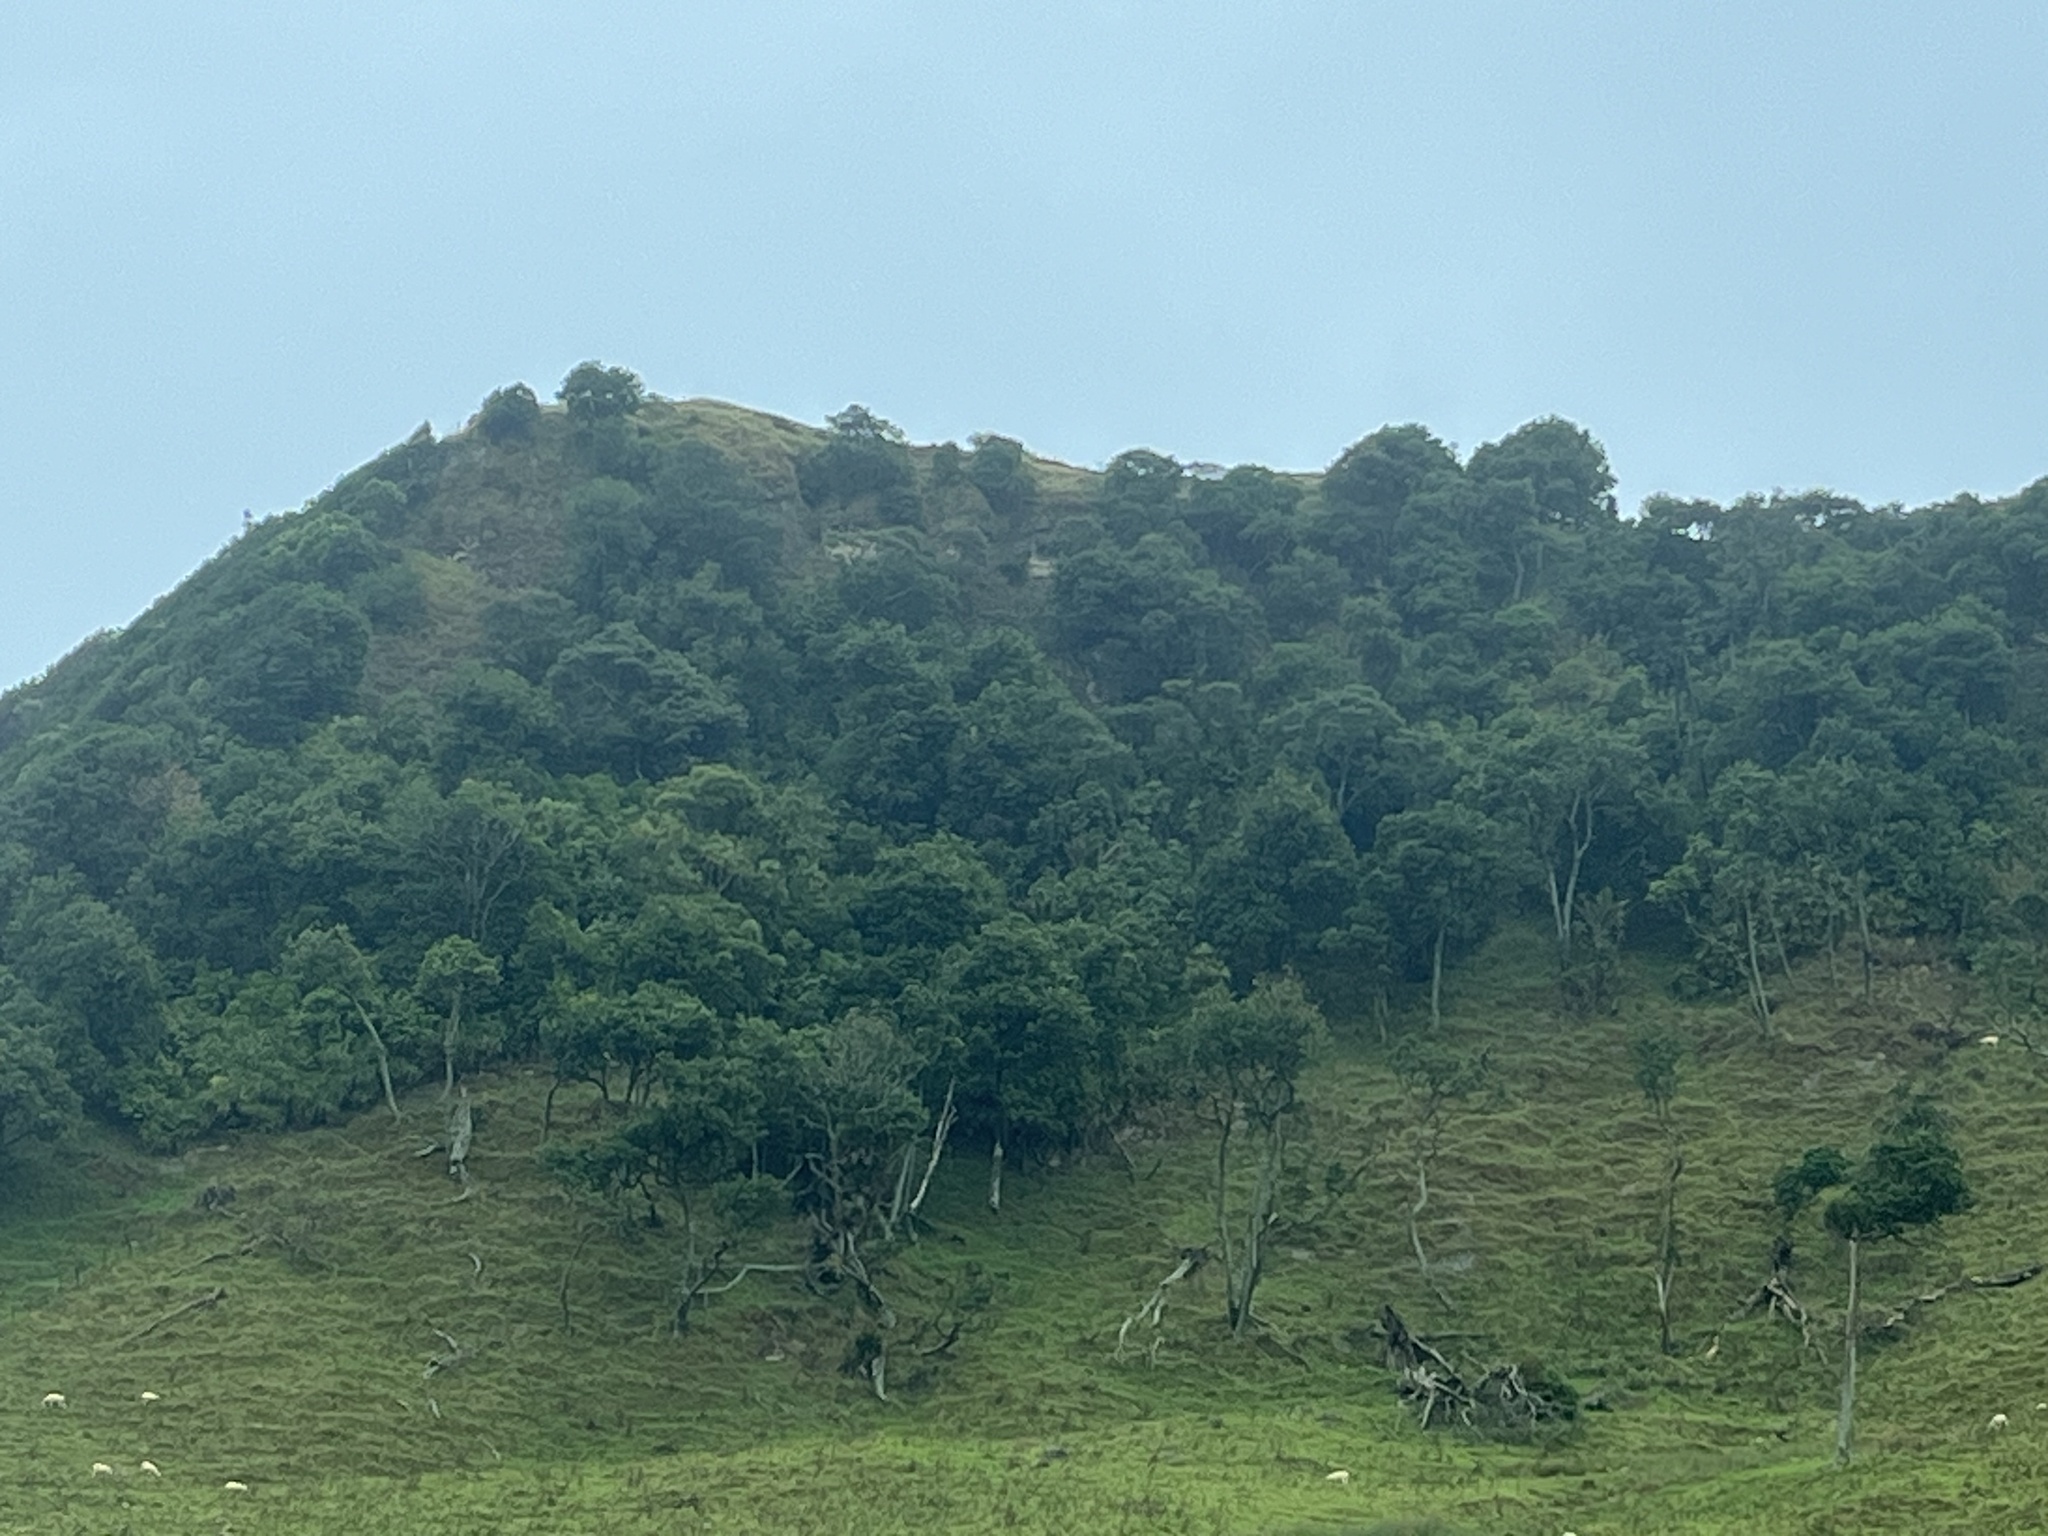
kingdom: Plantae
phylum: Tracheophyta
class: Liliopsida
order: Pandanales
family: Pandanaceae
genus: Freycinetia
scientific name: Freycinetia banksii
